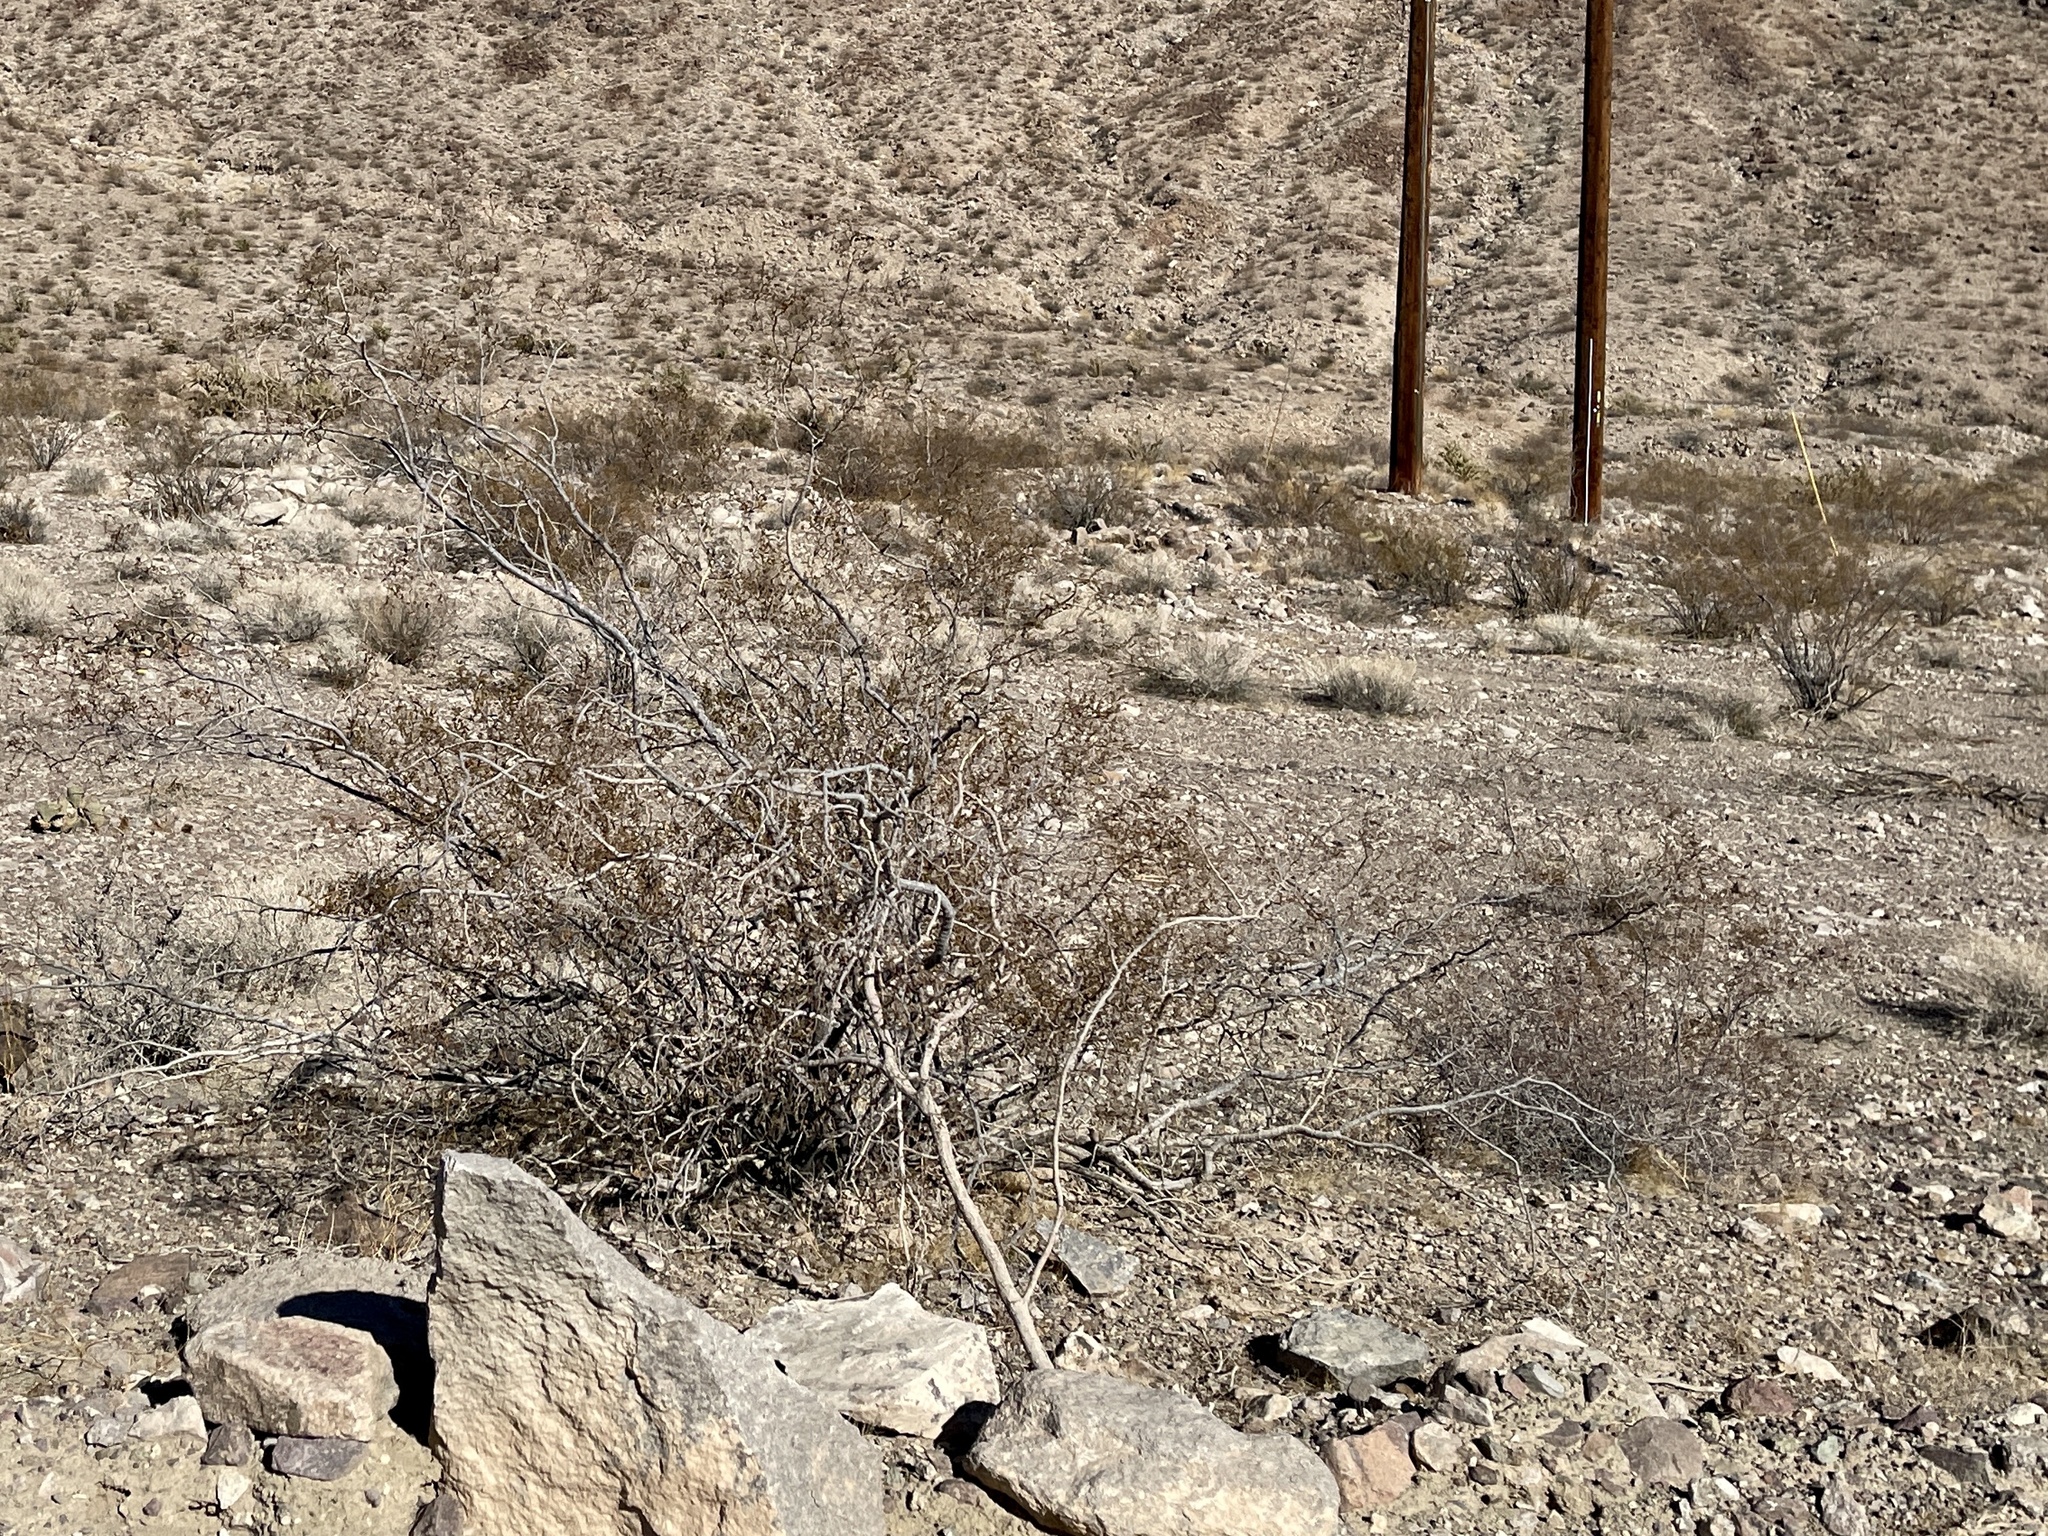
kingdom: Plantae
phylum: Tracheophyta
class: Magnoliopsida
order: Zygophyllales
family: Zygophyllaceae
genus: Larrea
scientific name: Larrea tridentata
